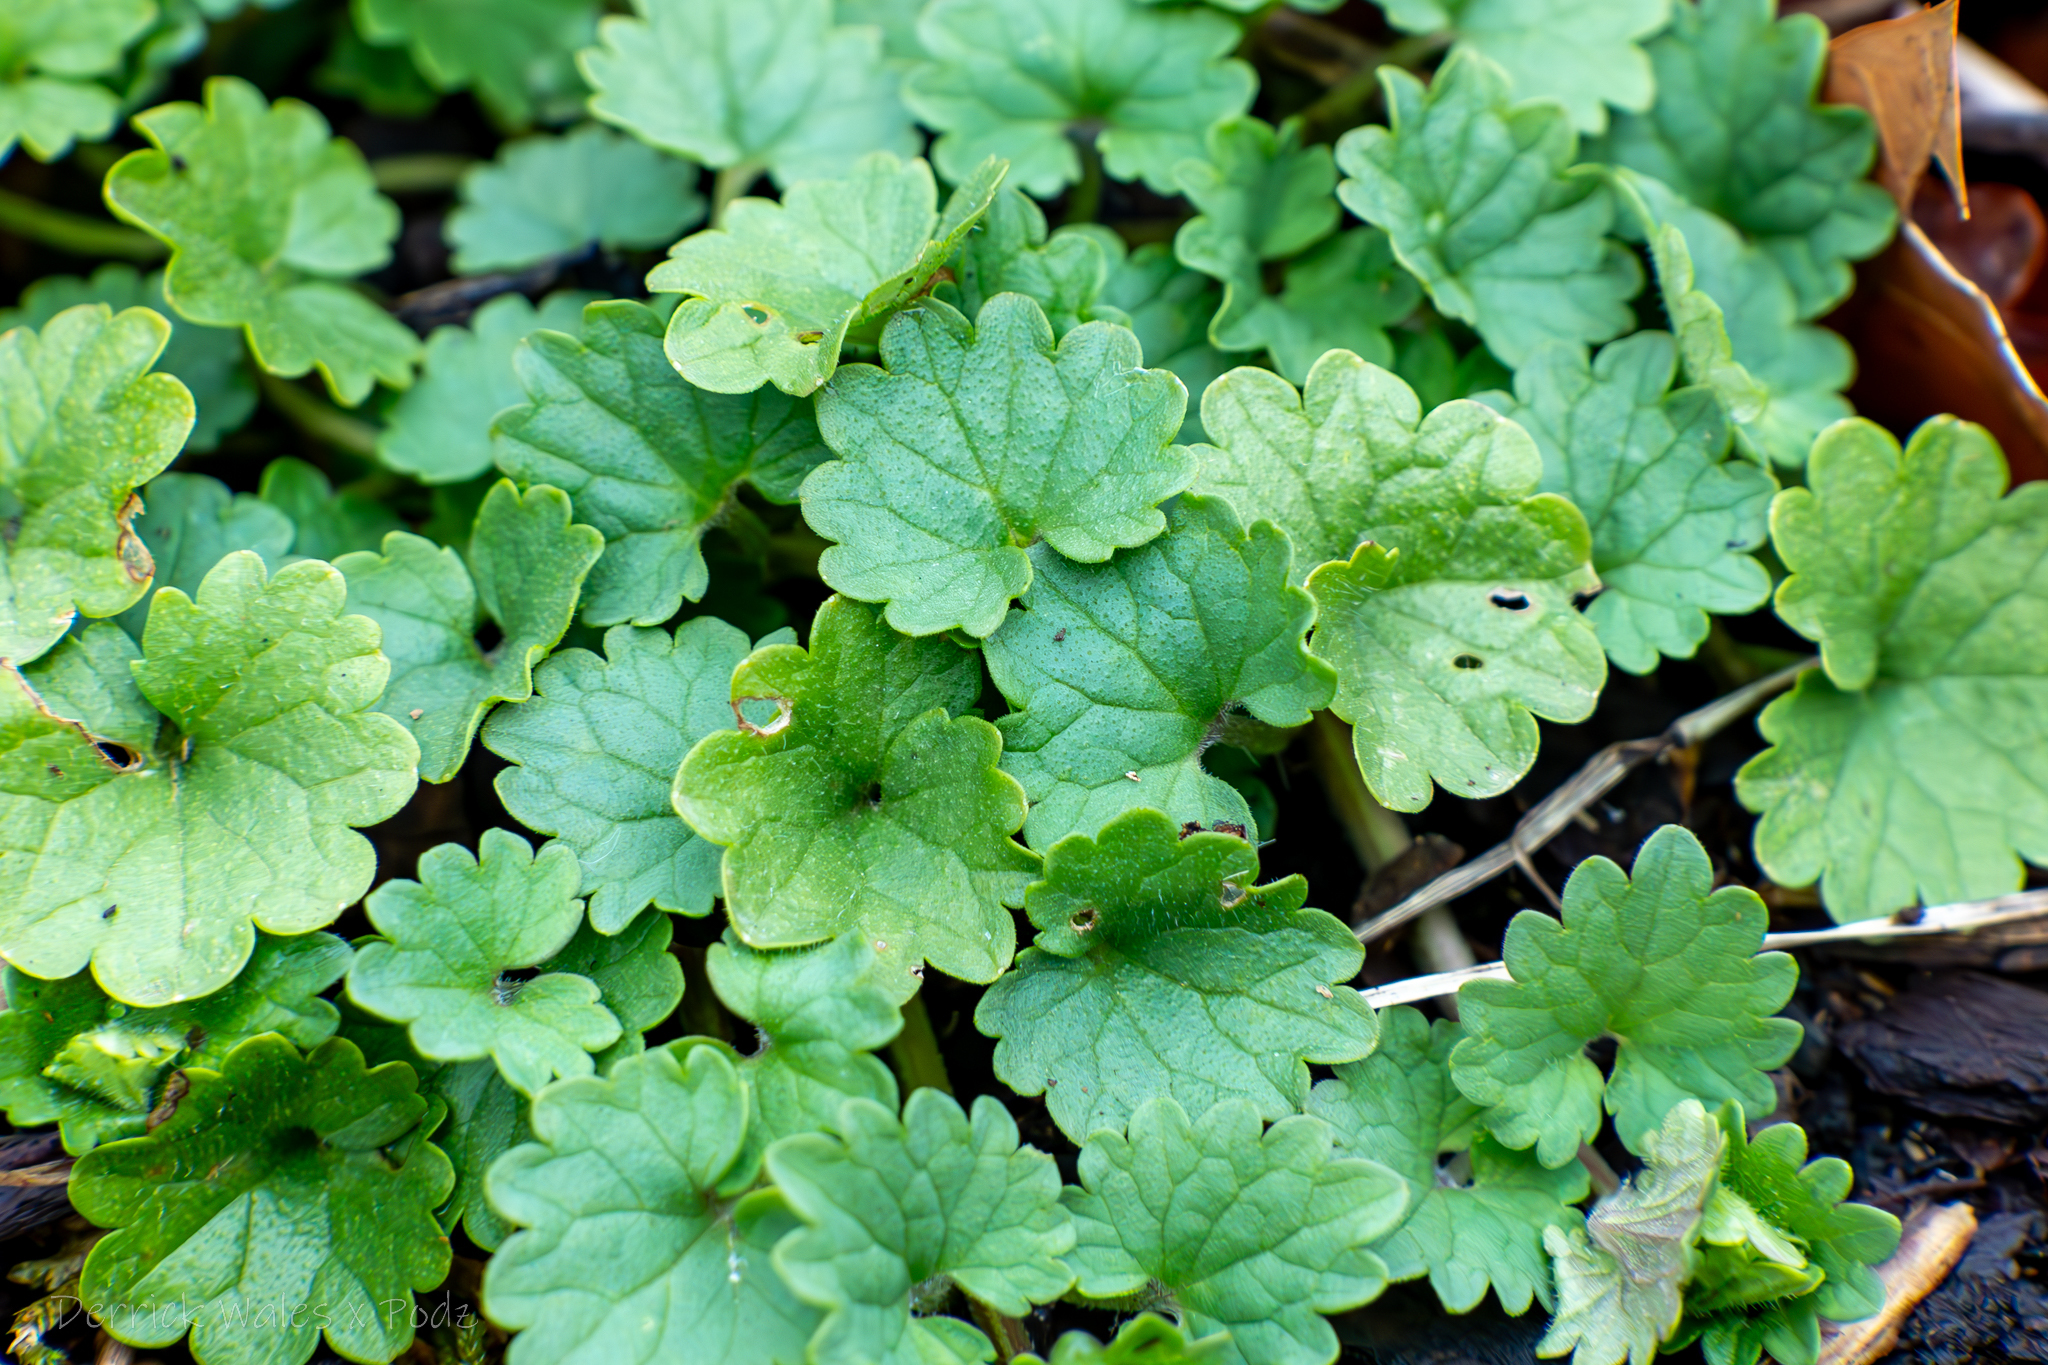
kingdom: Plantae
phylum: Tracheophyta
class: Magnoliopsida
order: Lamiales
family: Lamiaceae
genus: Glechoma
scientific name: Glechoma hederacea
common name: Ground ivy
